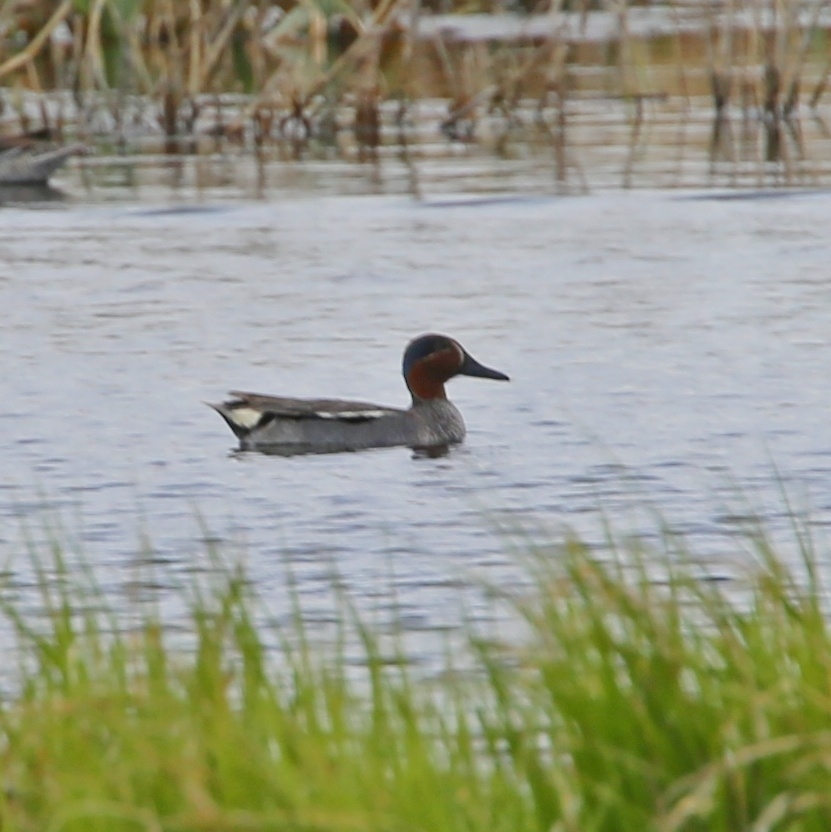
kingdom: Animalia
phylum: Chordata
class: Aves
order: Anseriformes
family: Anatidae
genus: Anas
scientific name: Anas crecca
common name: Eurasian teal
